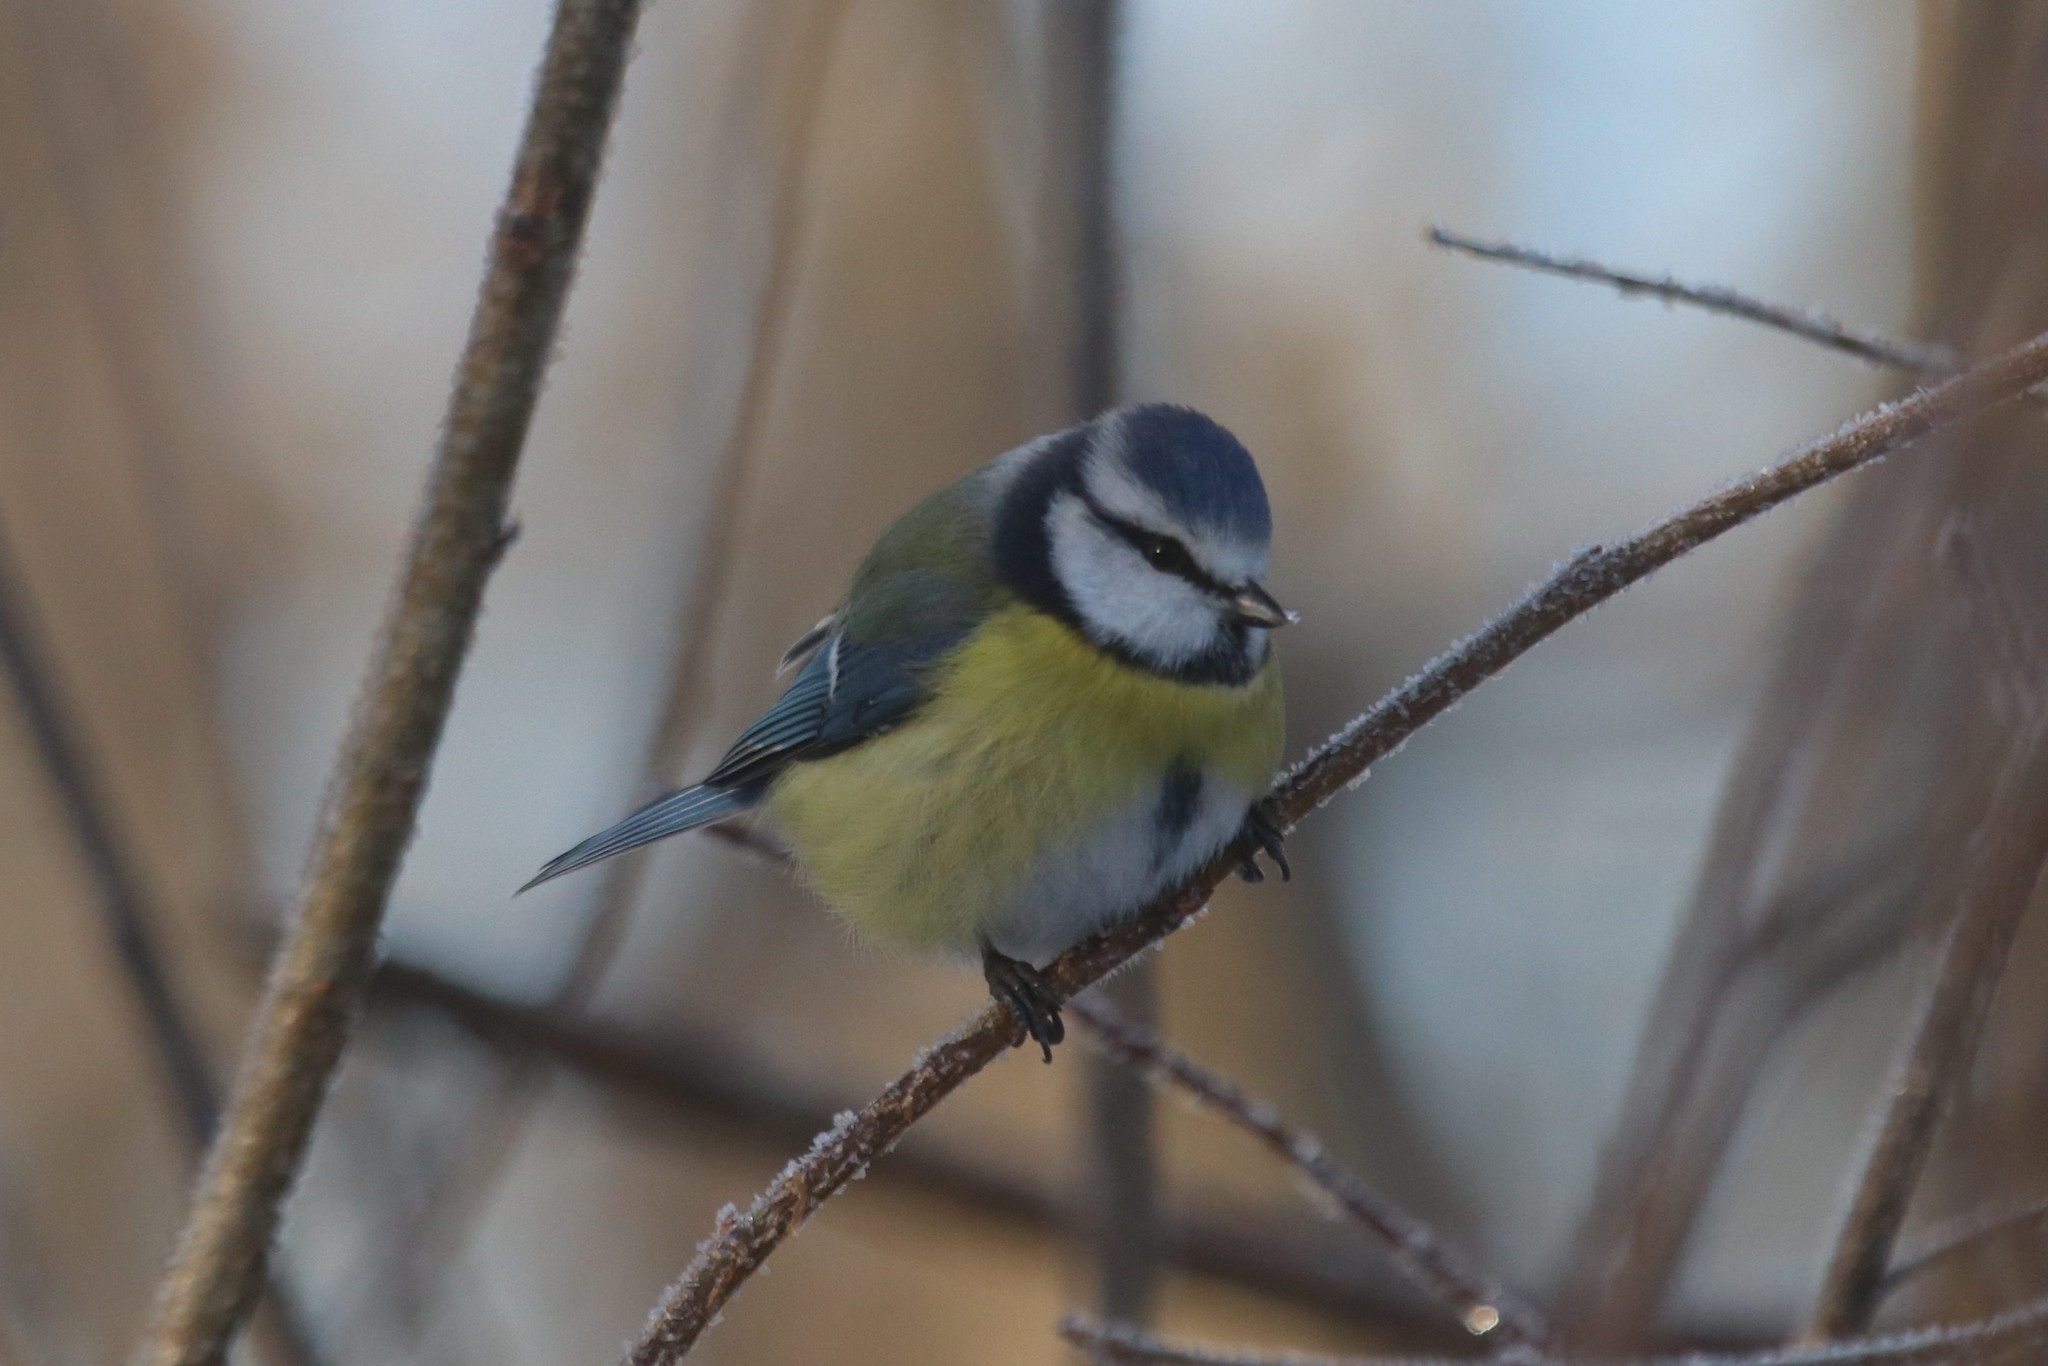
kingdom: Animalia
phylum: Chordata
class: Aves
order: Passeriformes
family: Paridae
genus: Cyanistes
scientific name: Cyanistes caeruleus
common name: Eurasian blue tit
